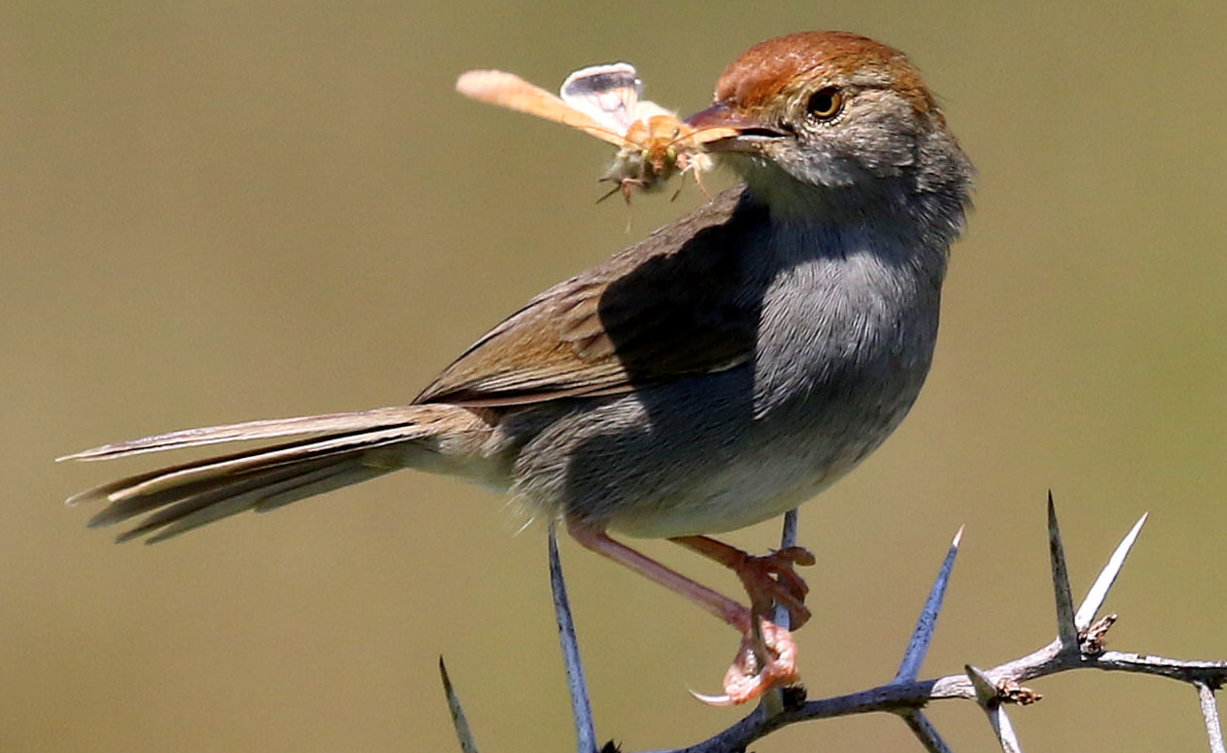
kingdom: Animalia
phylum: Chordata
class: Aves
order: Passeriformes
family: Cisticolidae
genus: Cisticola
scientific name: Cisticola fulvicapilla
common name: Neddicky
